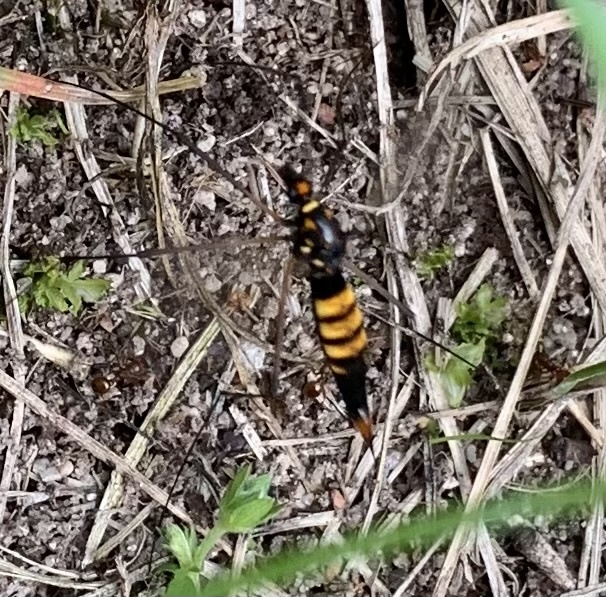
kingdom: Animalia
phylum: Arthropoda
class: Insecta
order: Diptera
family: Tipulidae
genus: Nephrotoma
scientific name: Nephrotoma crocata
